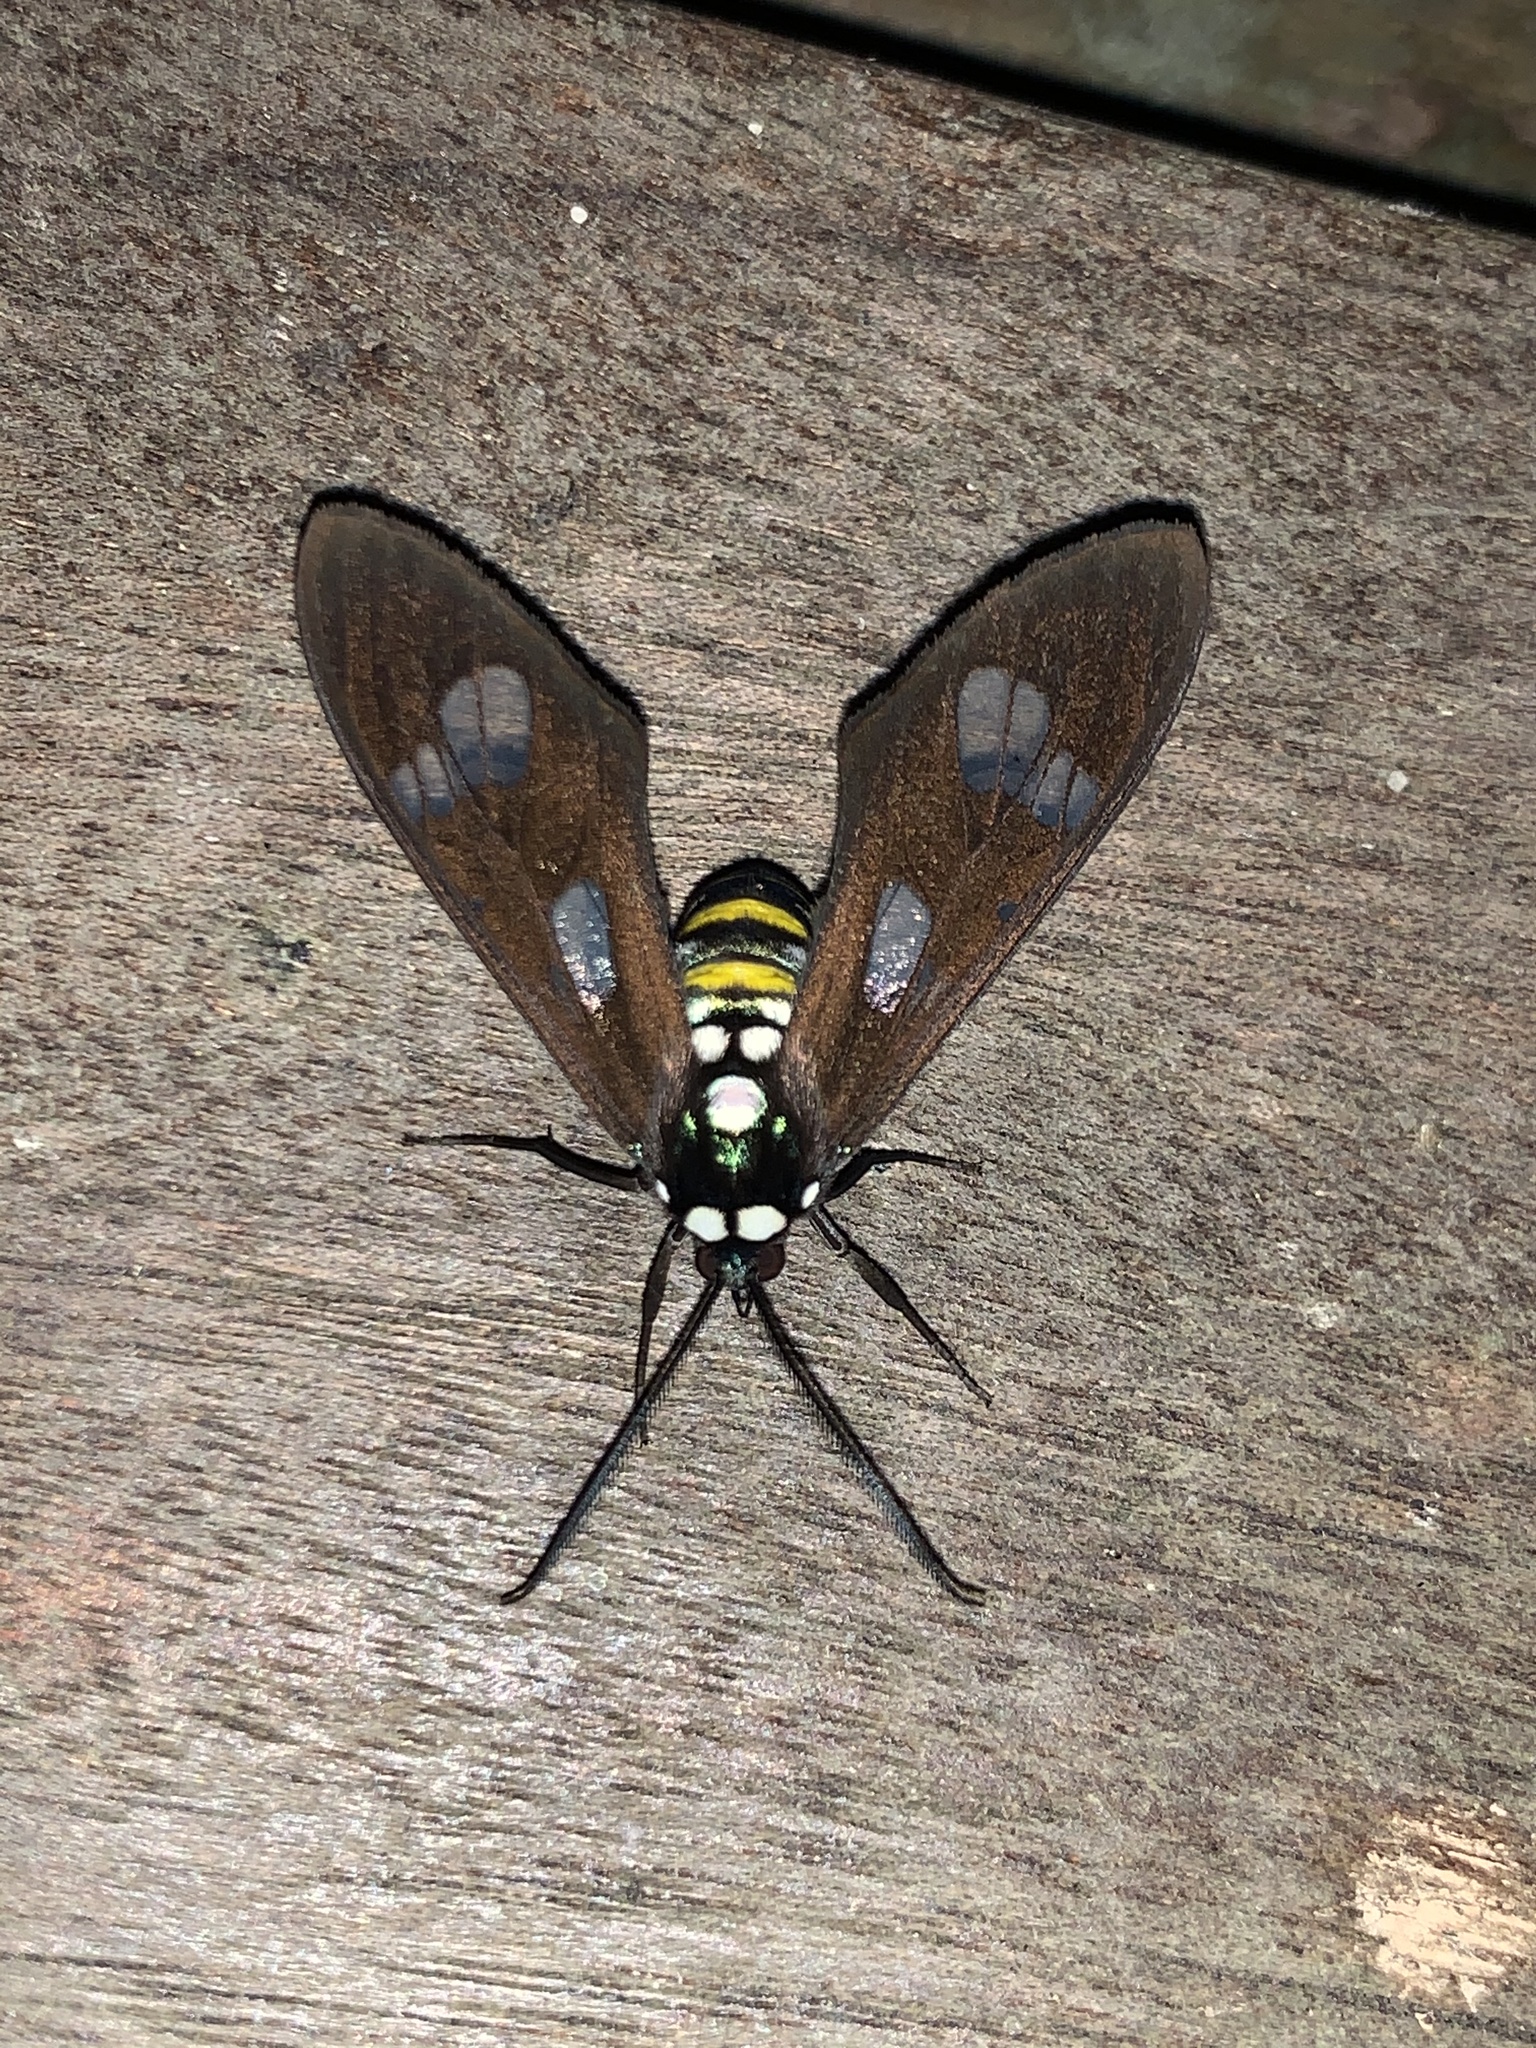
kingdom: Animalia
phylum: Arthropoda
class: Insecta
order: Lepidoptera
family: Erebidae
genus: Phaio
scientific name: Phaio acquiguttata
